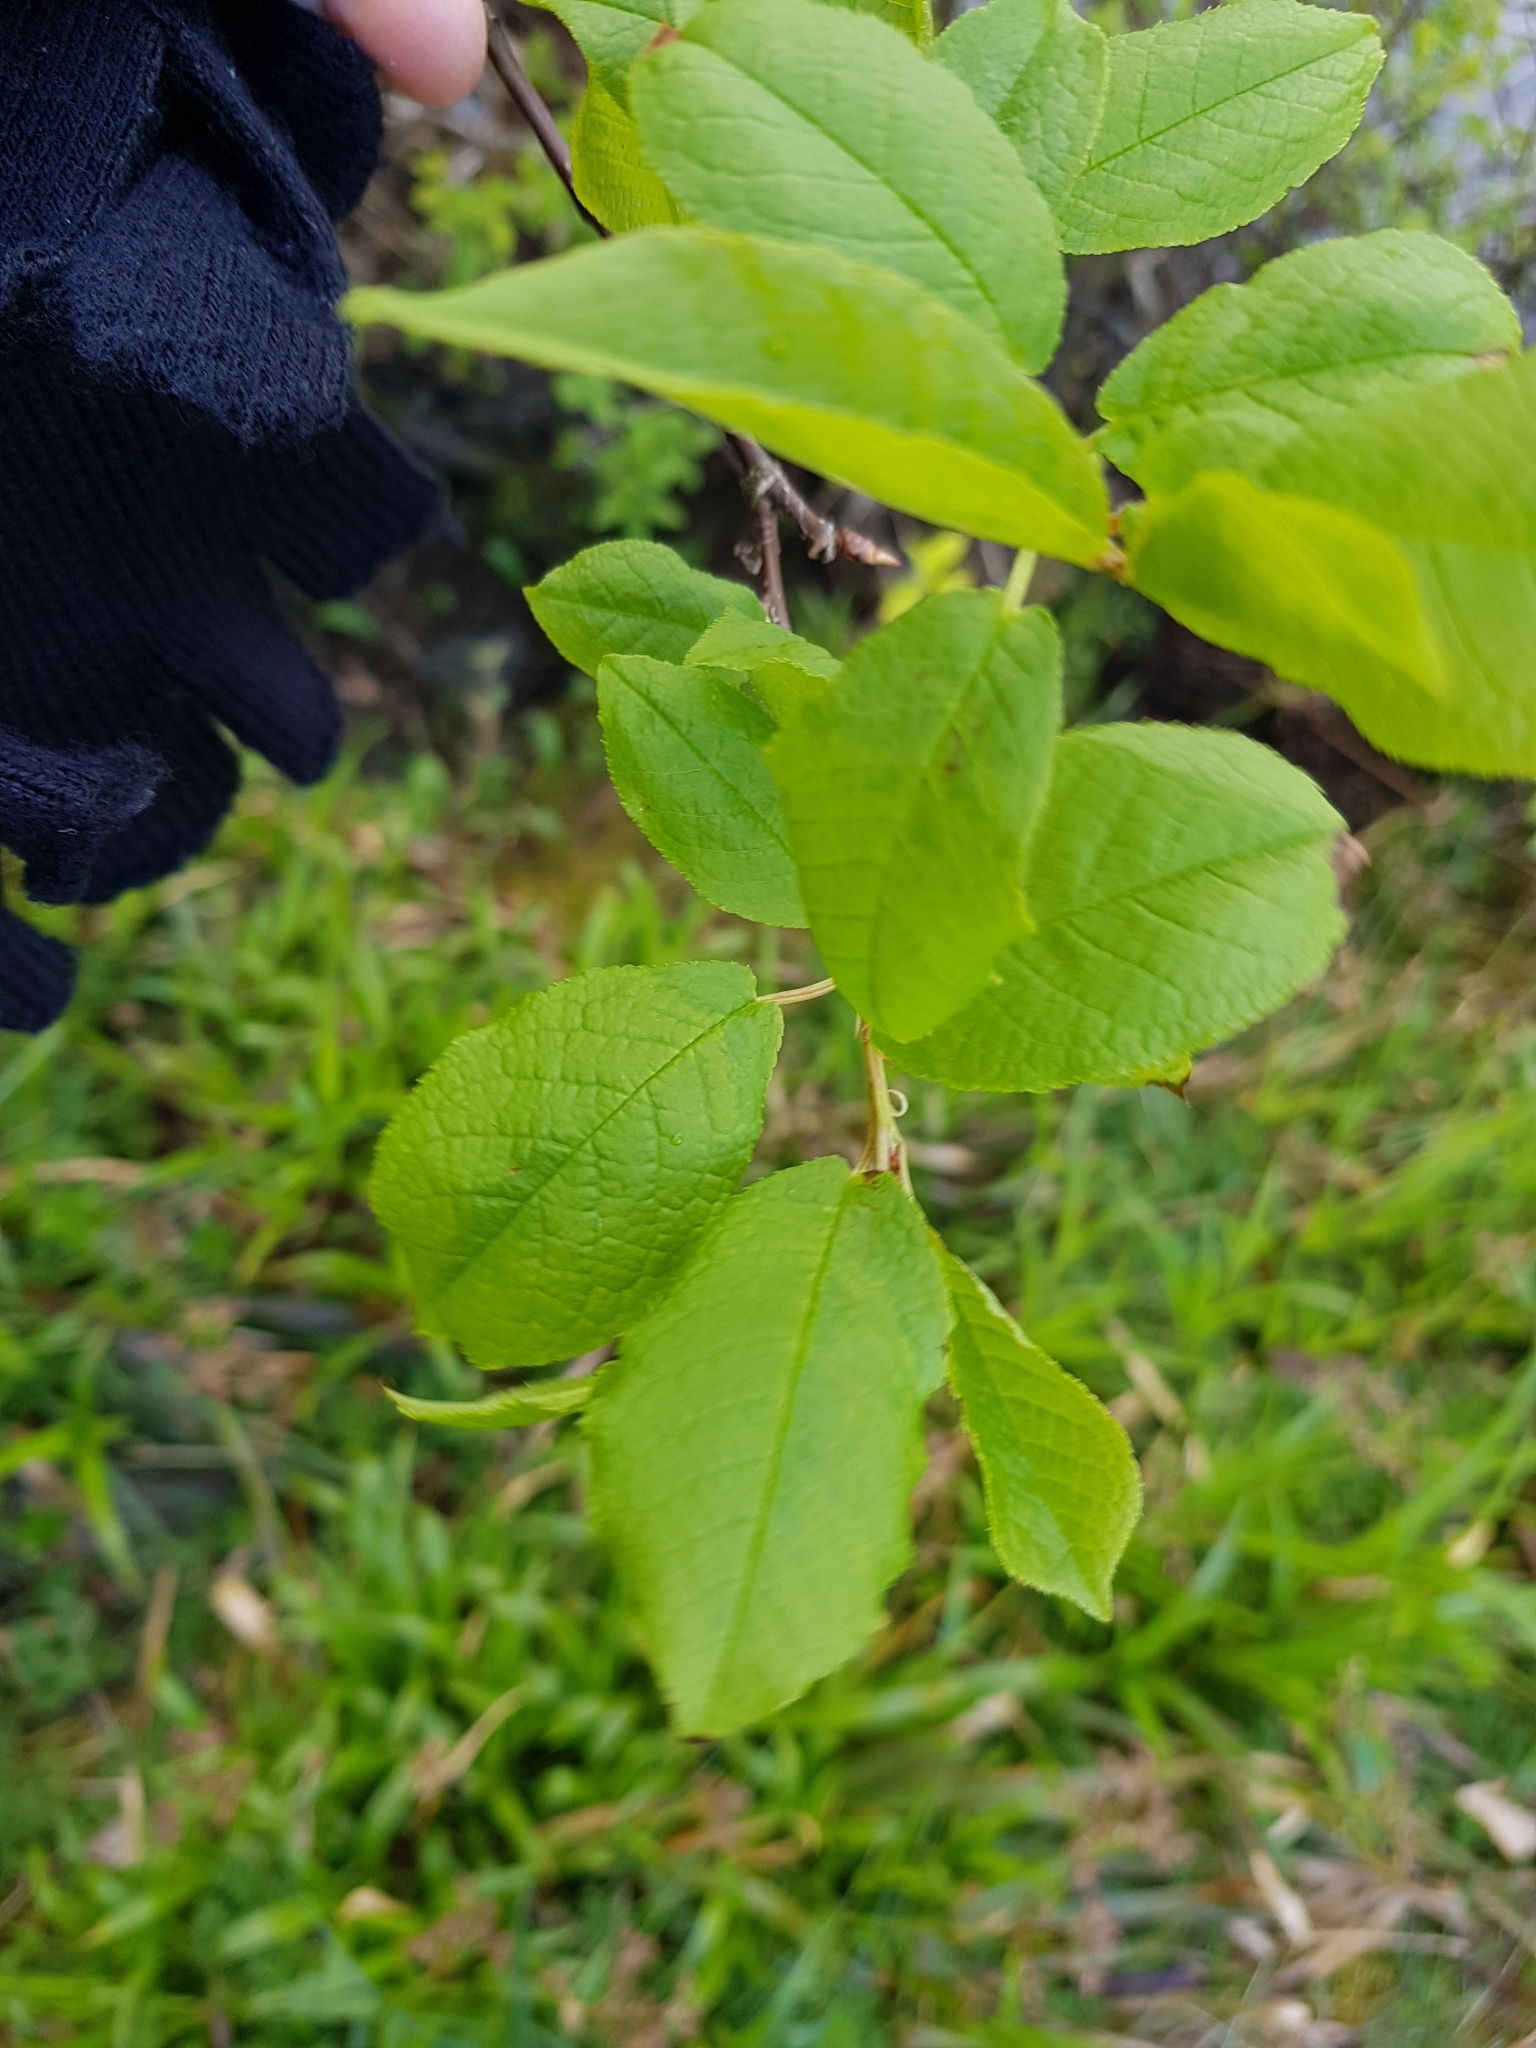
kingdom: Plantae
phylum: Tracheophyta
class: Magnoliopsida
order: Rosales
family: Rosaceae
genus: Prunus
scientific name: Prunus padus
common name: Bird cherry
